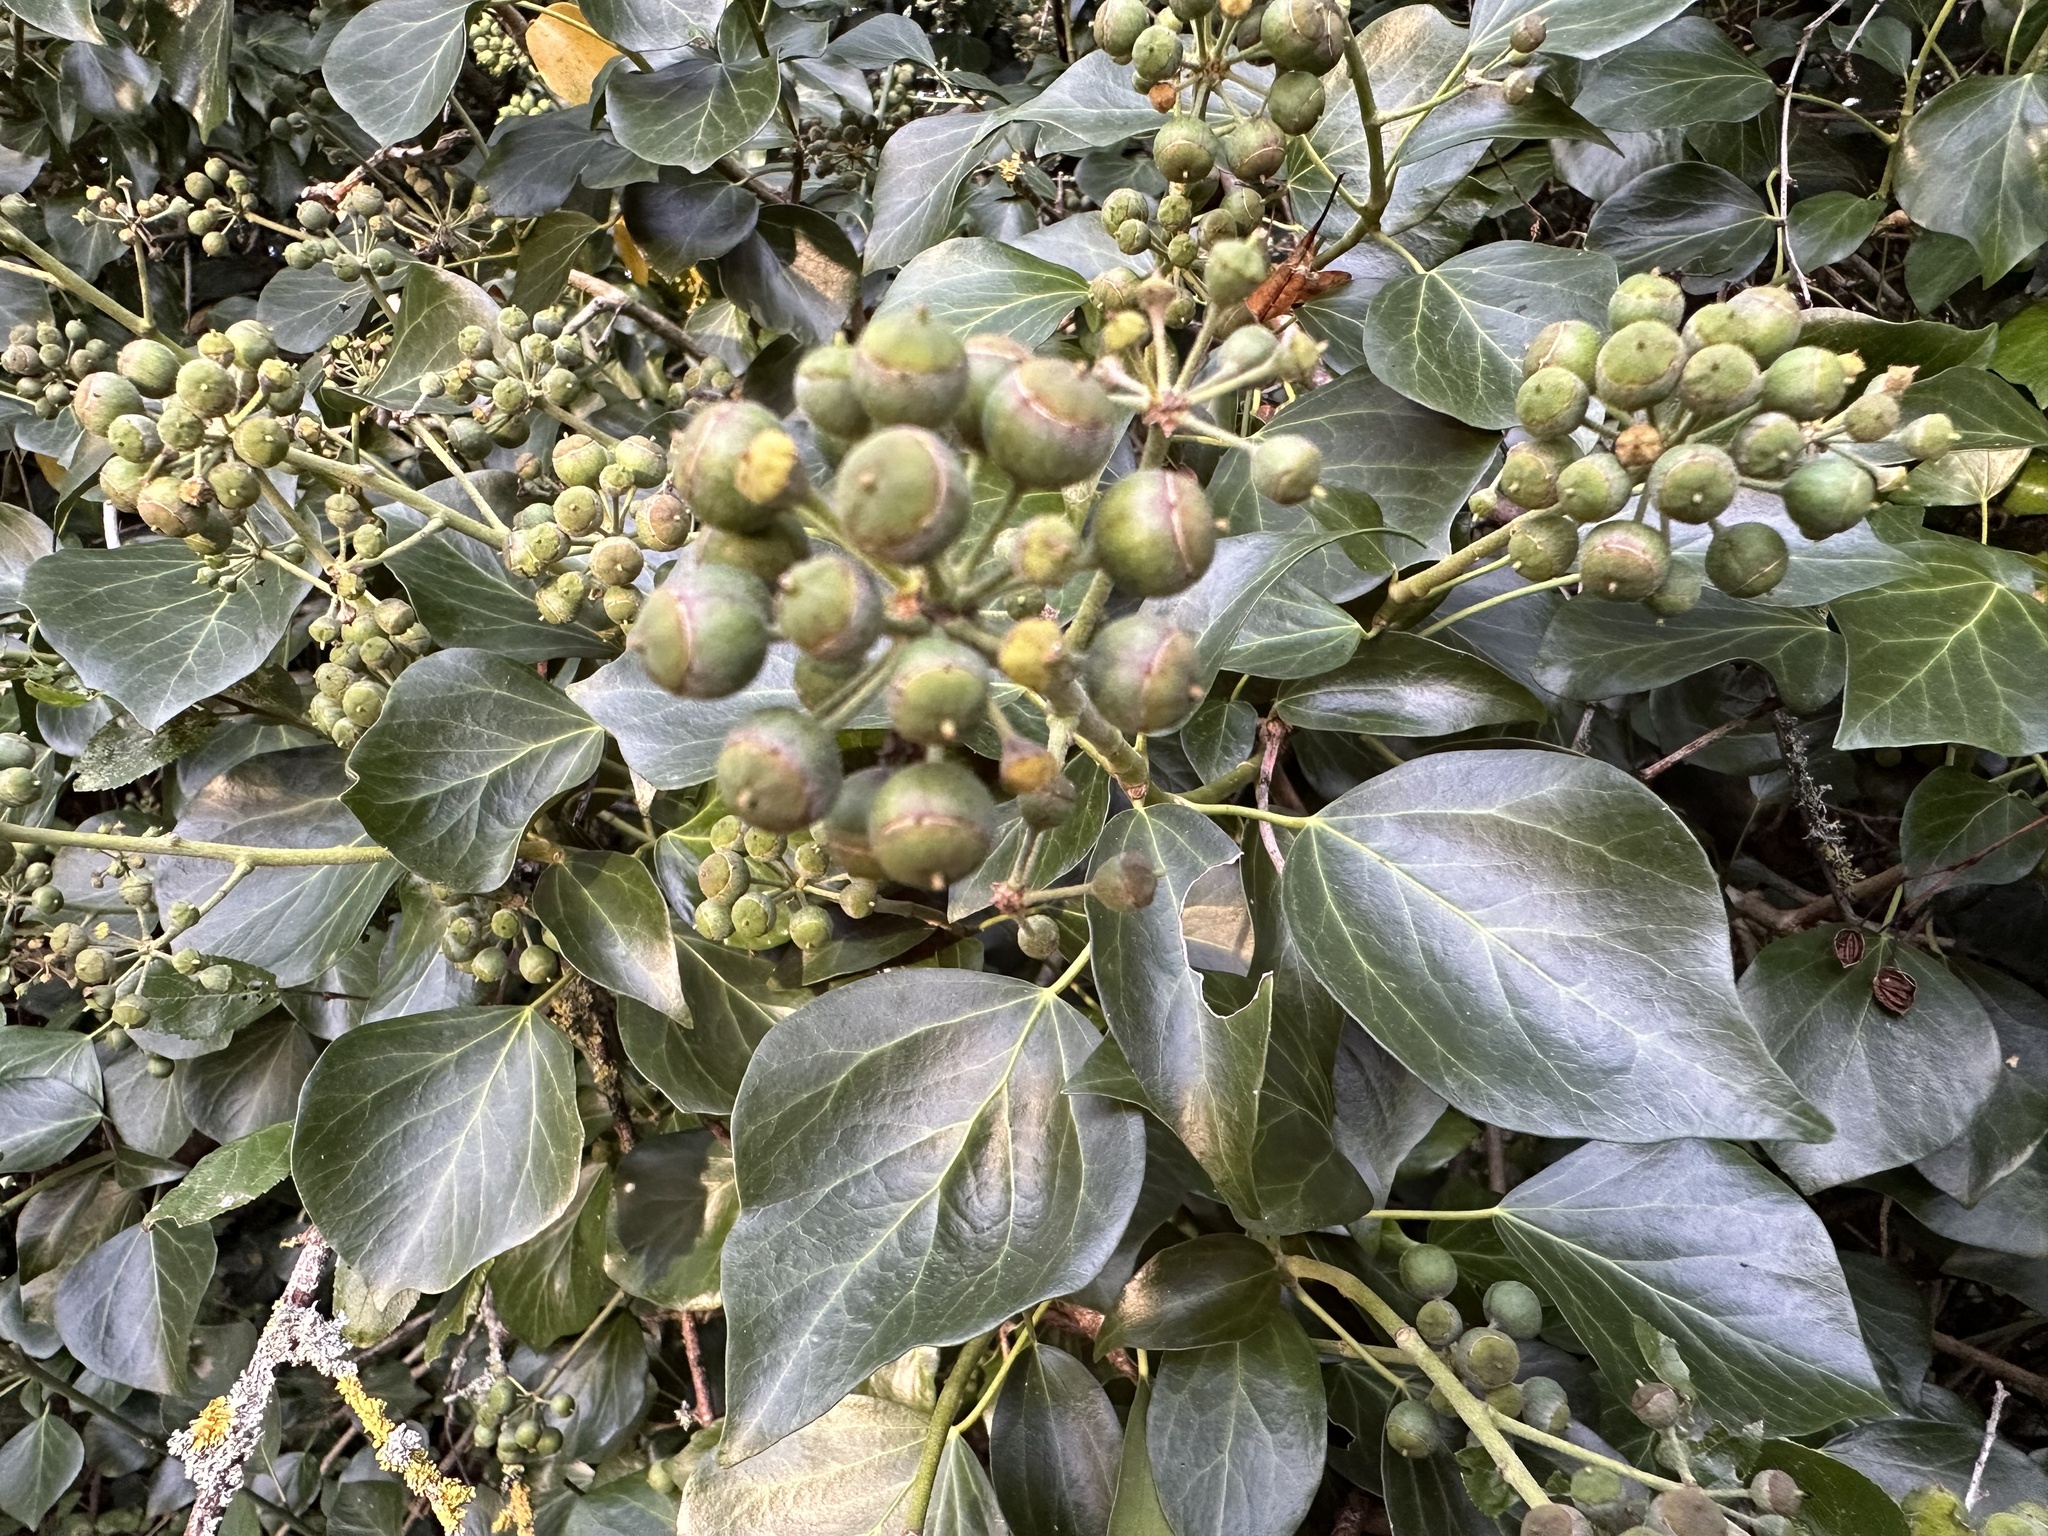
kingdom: Plantae
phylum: Tracheophyta
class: Magnoliopsida
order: Apiales
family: Araliaceae
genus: Hedera
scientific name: Hedera helix
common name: Ivy
